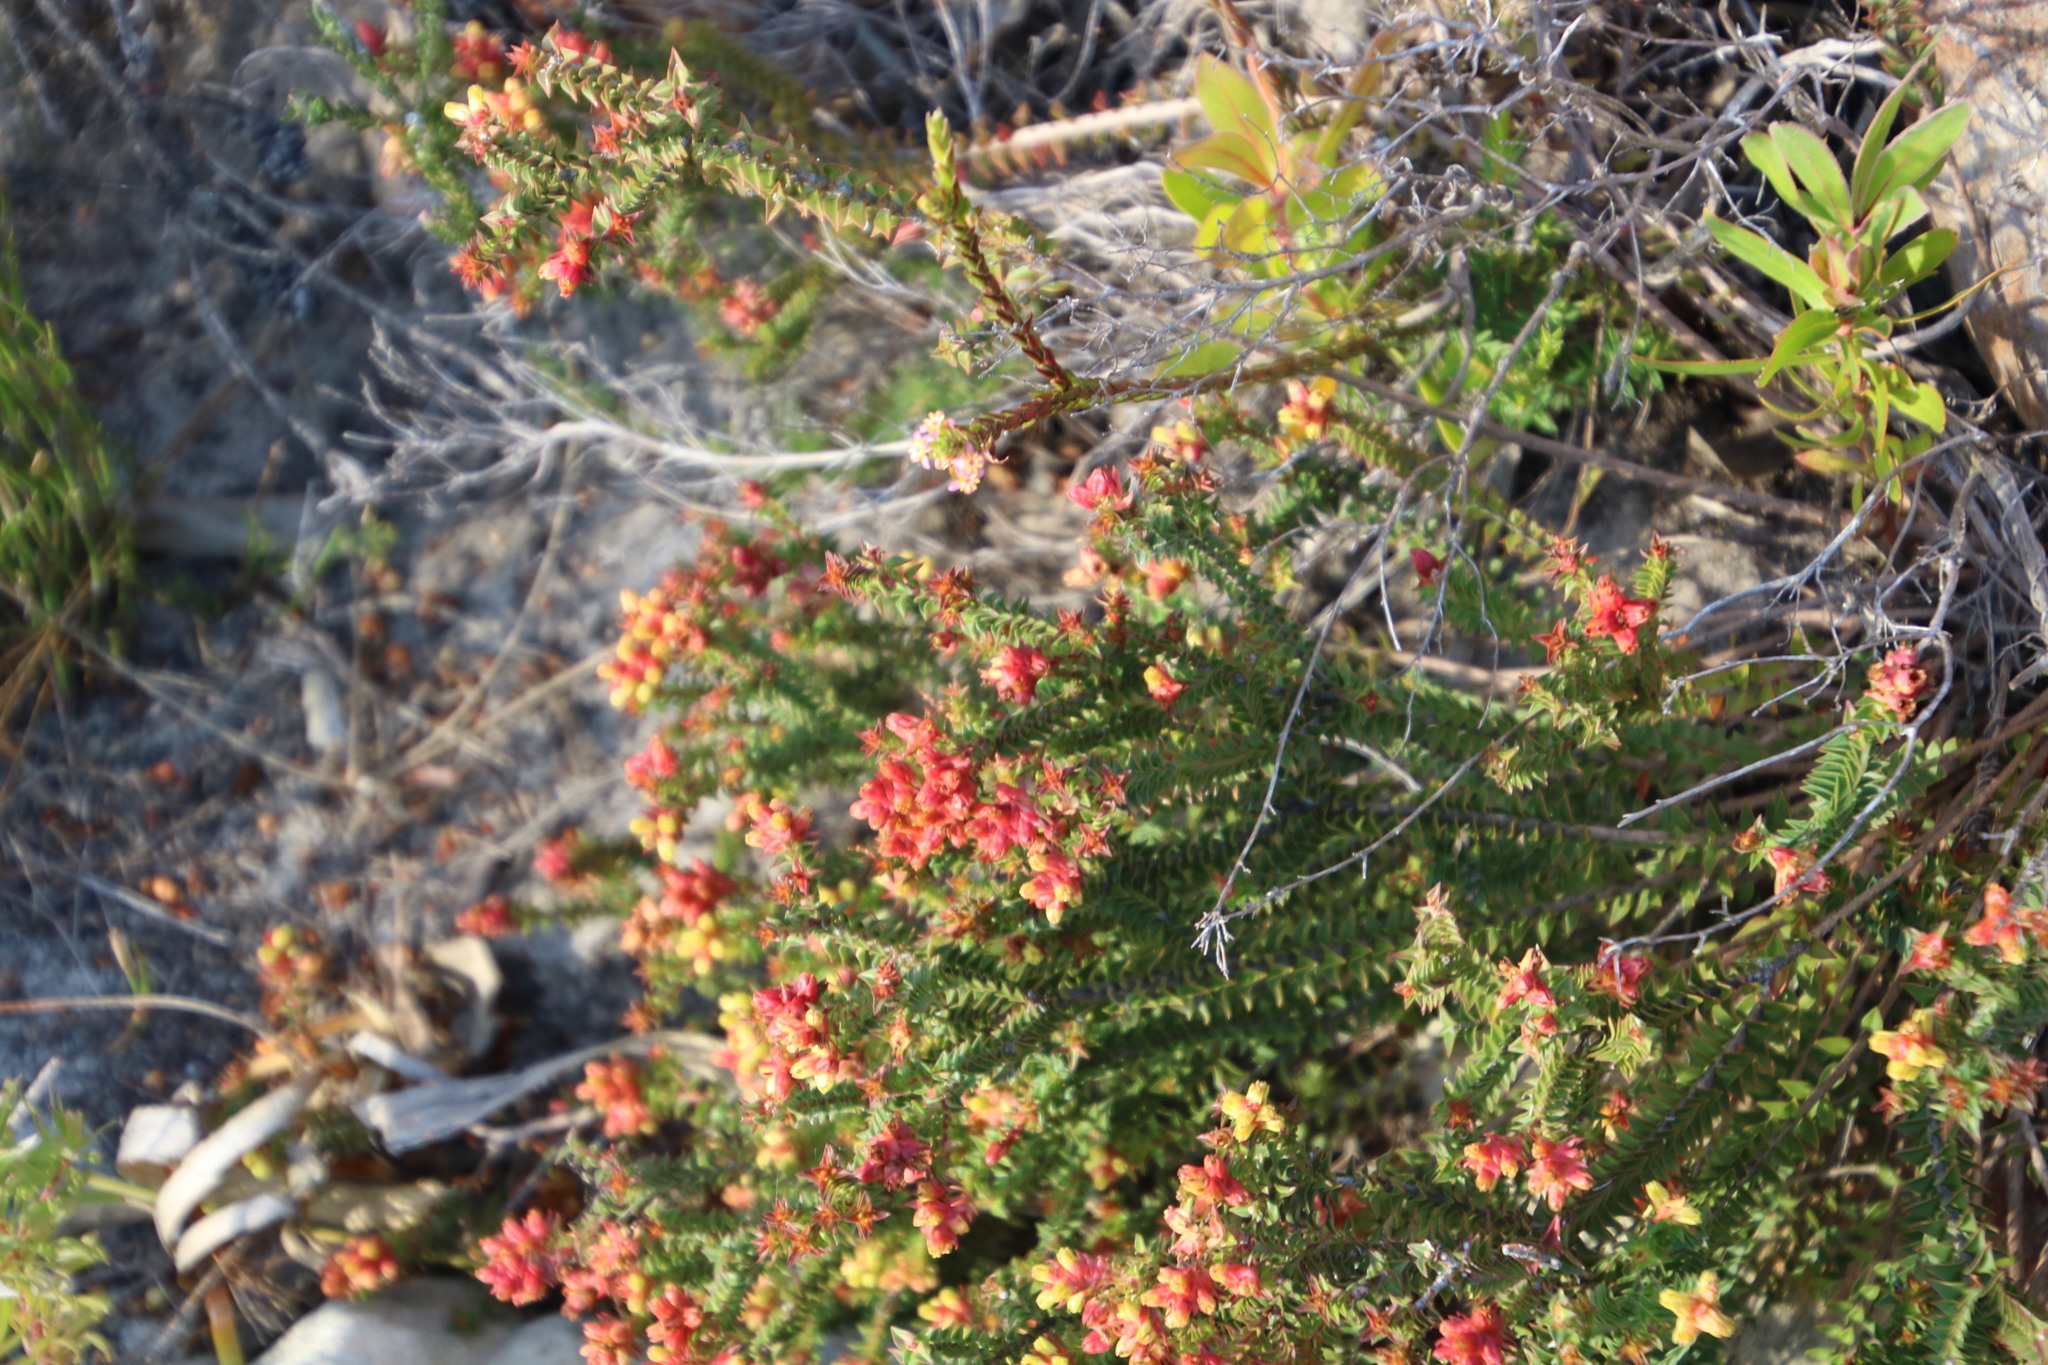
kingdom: Plantae
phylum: Tracheophyta
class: Magnoliopsida
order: Myrtales
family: Penaeaceae
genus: Penaea
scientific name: Penaea mucronata
